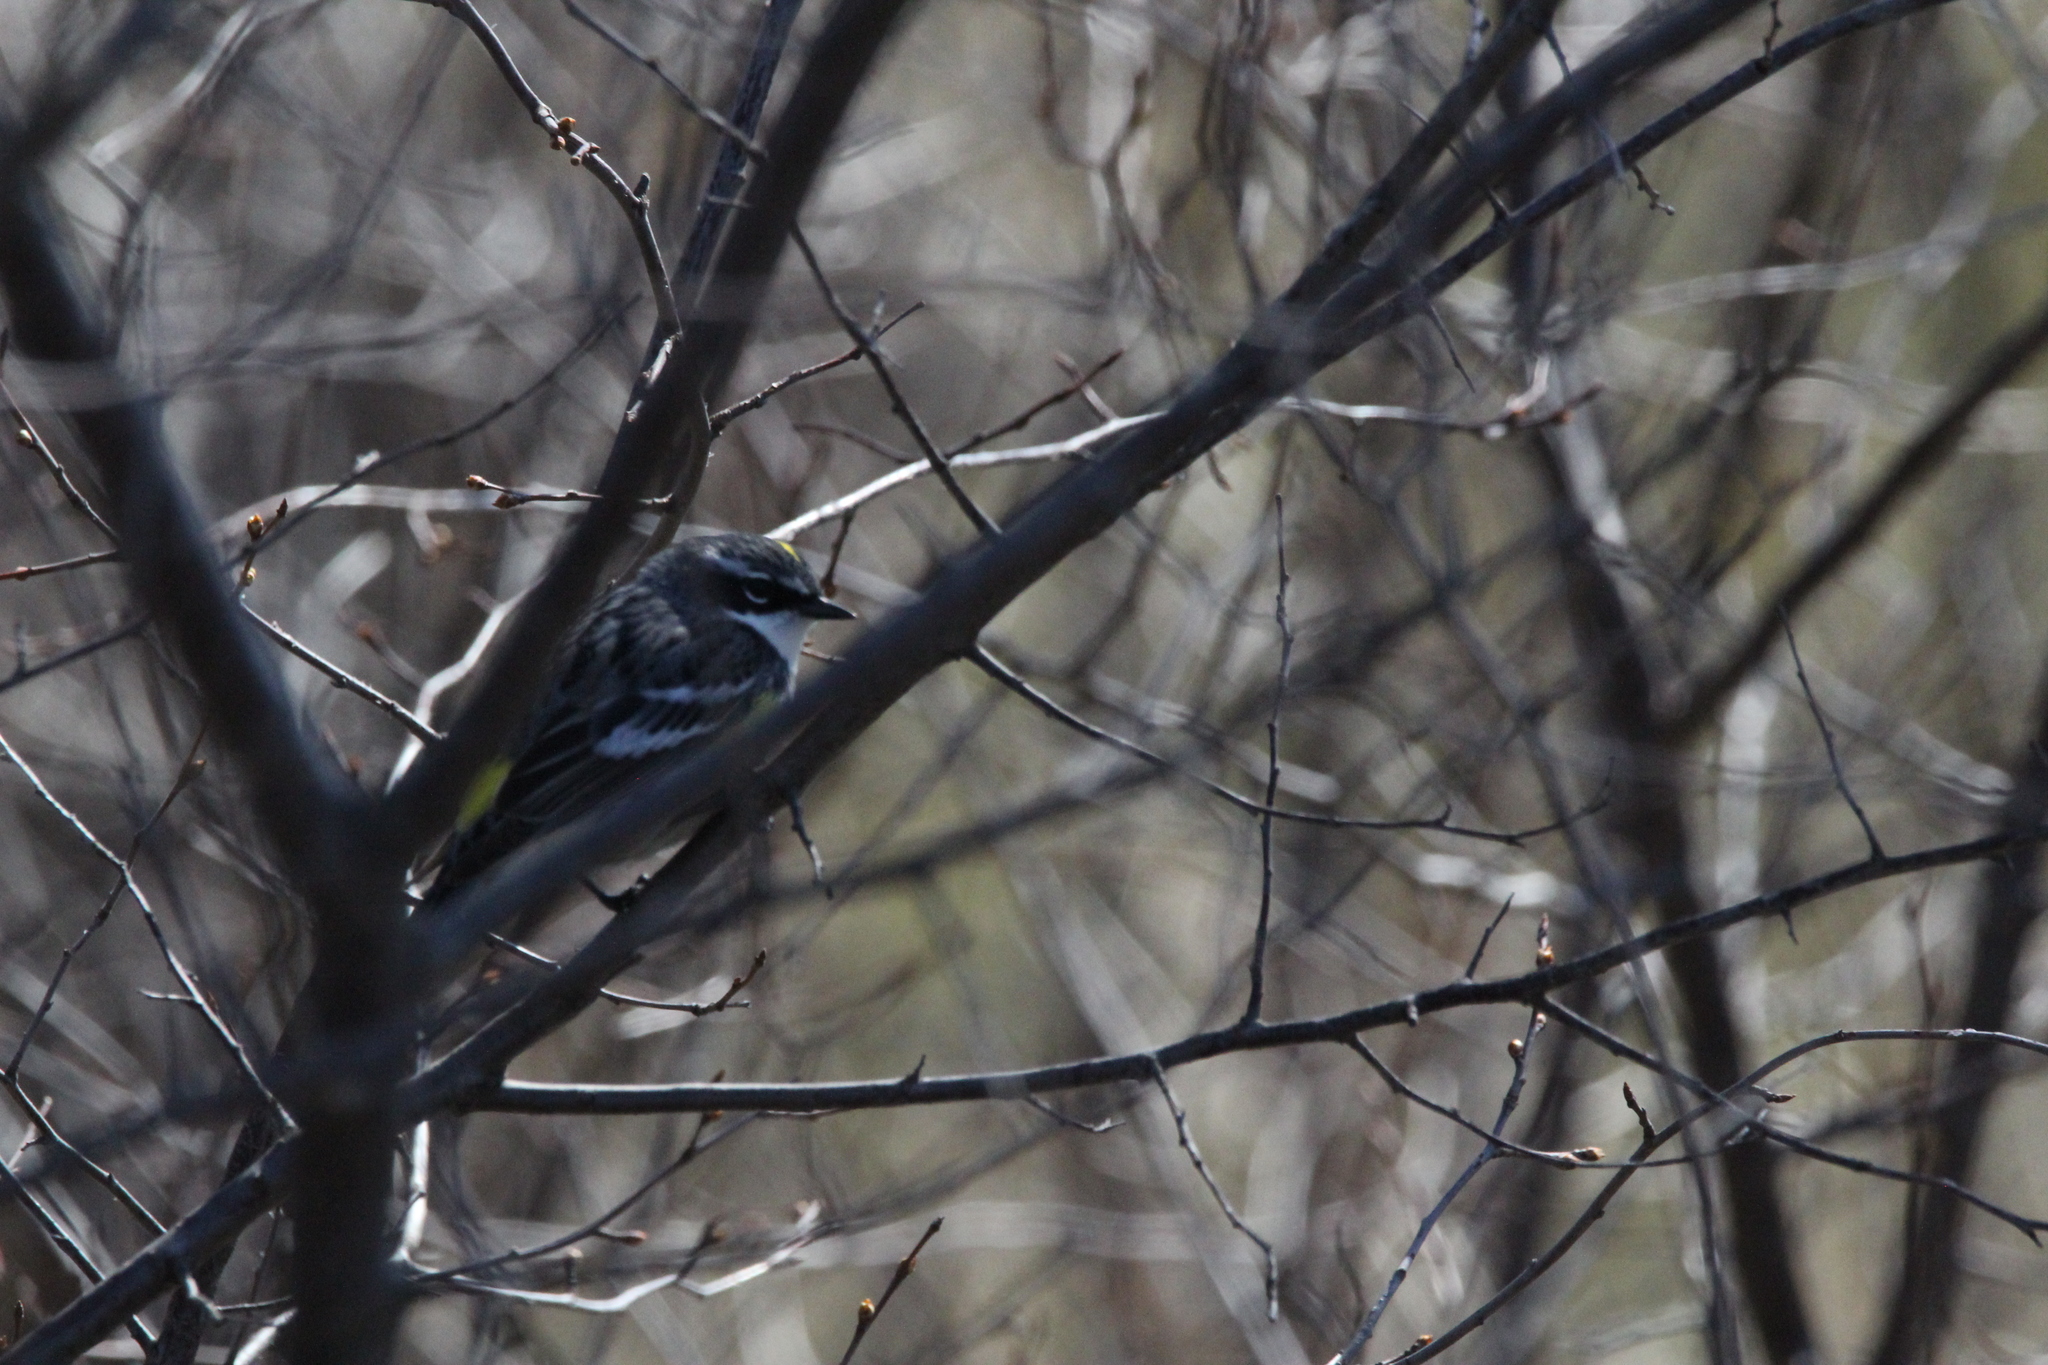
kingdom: Animalia
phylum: Chordata
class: Aves
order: Passeriformes
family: Parulidae
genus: Setophaga
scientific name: Setophaga coronata
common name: Myrtle warbler
